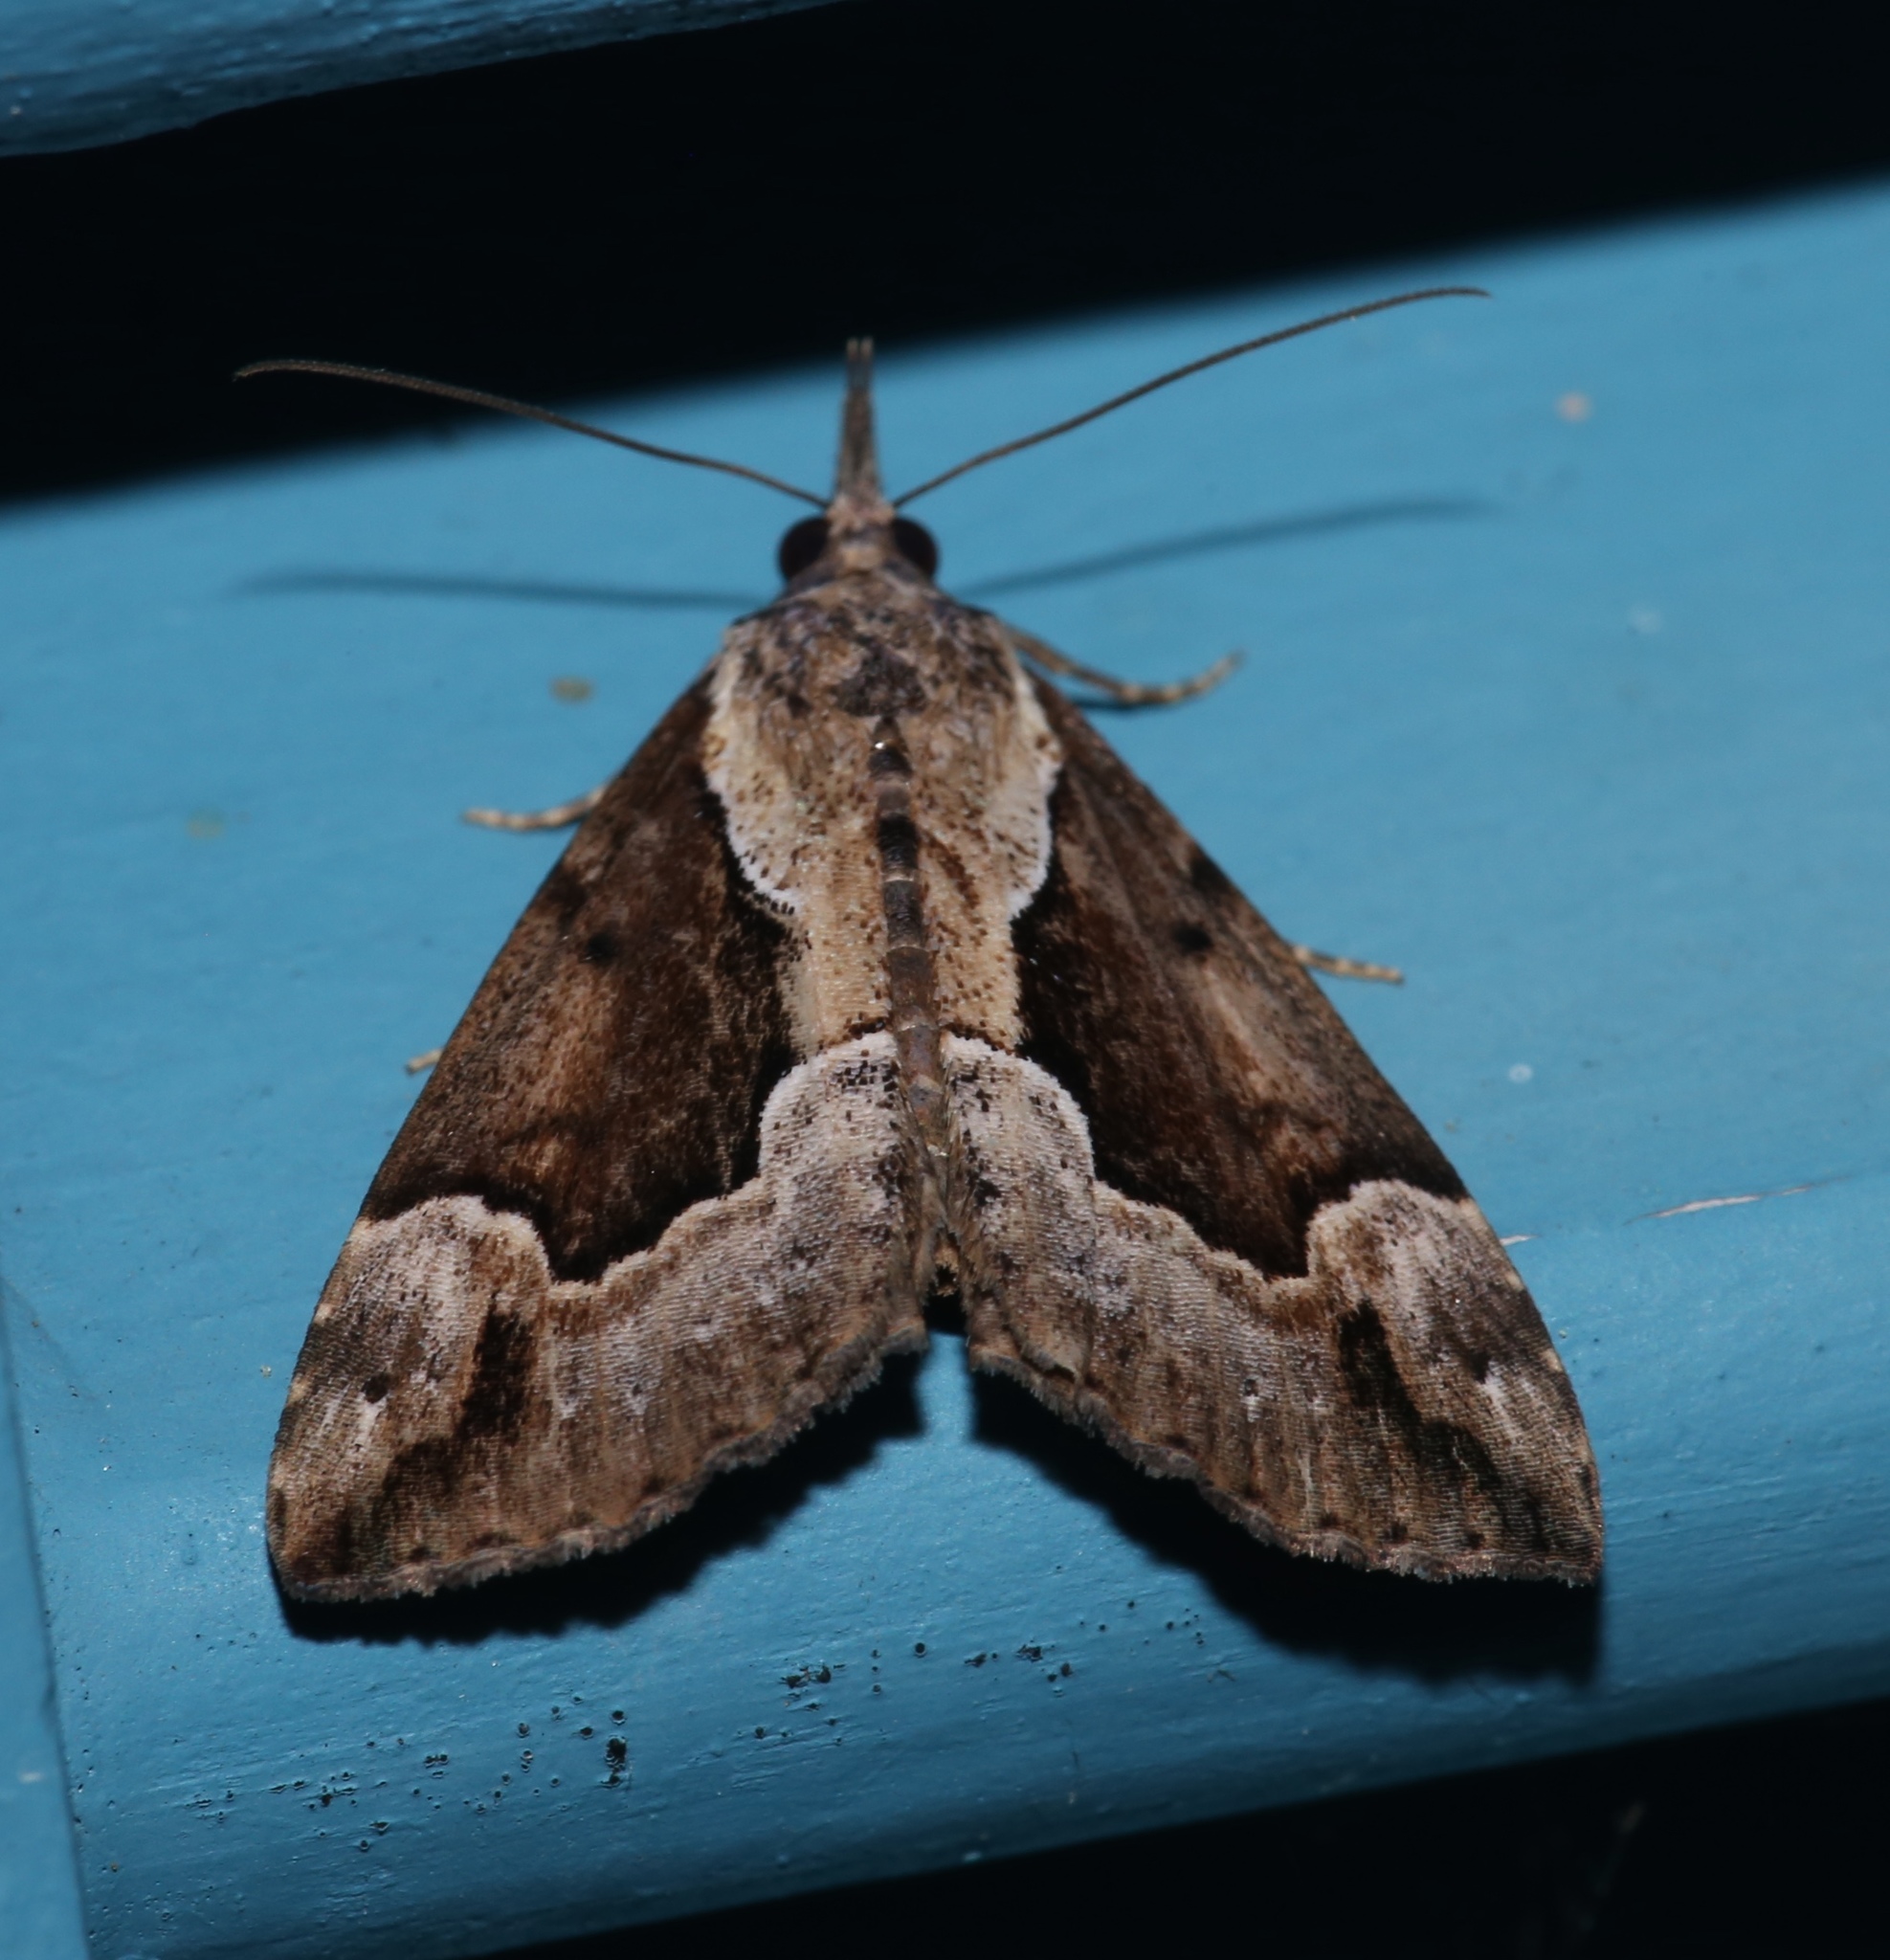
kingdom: Animalia
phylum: Arthropoda
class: Insecta
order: Lepidoptera
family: Erebidae
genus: Hypena
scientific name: Hypena baltimoralis
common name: Baltimore snout
